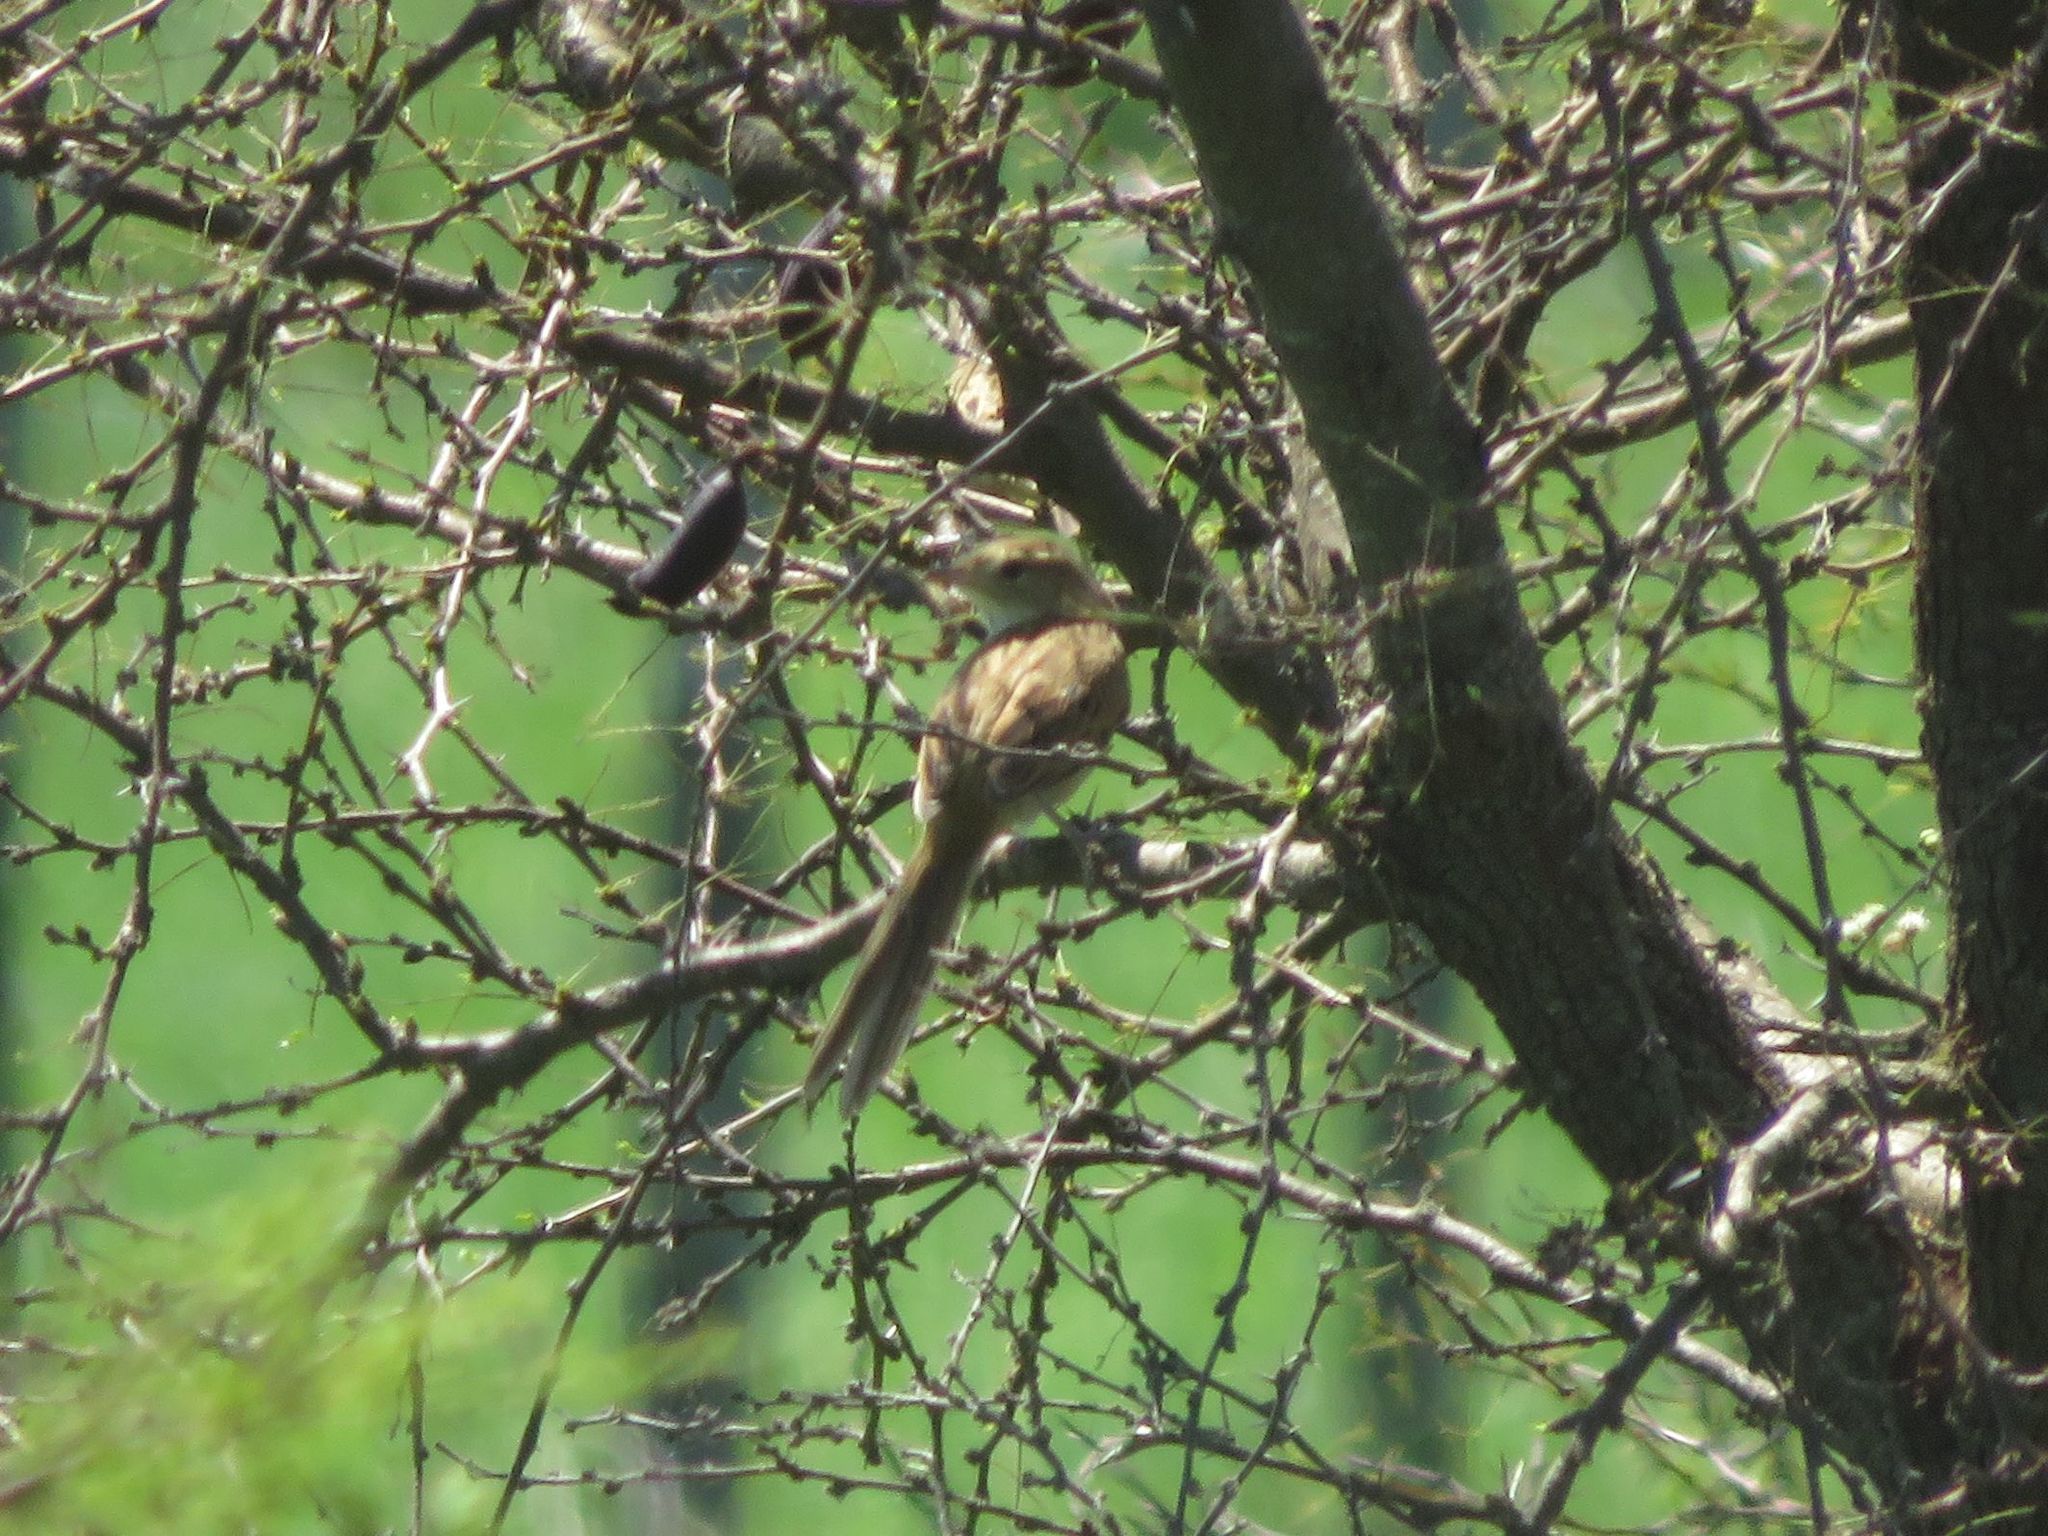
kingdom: Animalia
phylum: Chordata
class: Aves
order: Passeriformes
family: Furnariidae
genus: Schoeniophylax
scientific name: Schoeniophylax phryganophilus
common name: Chotoy spinetail
